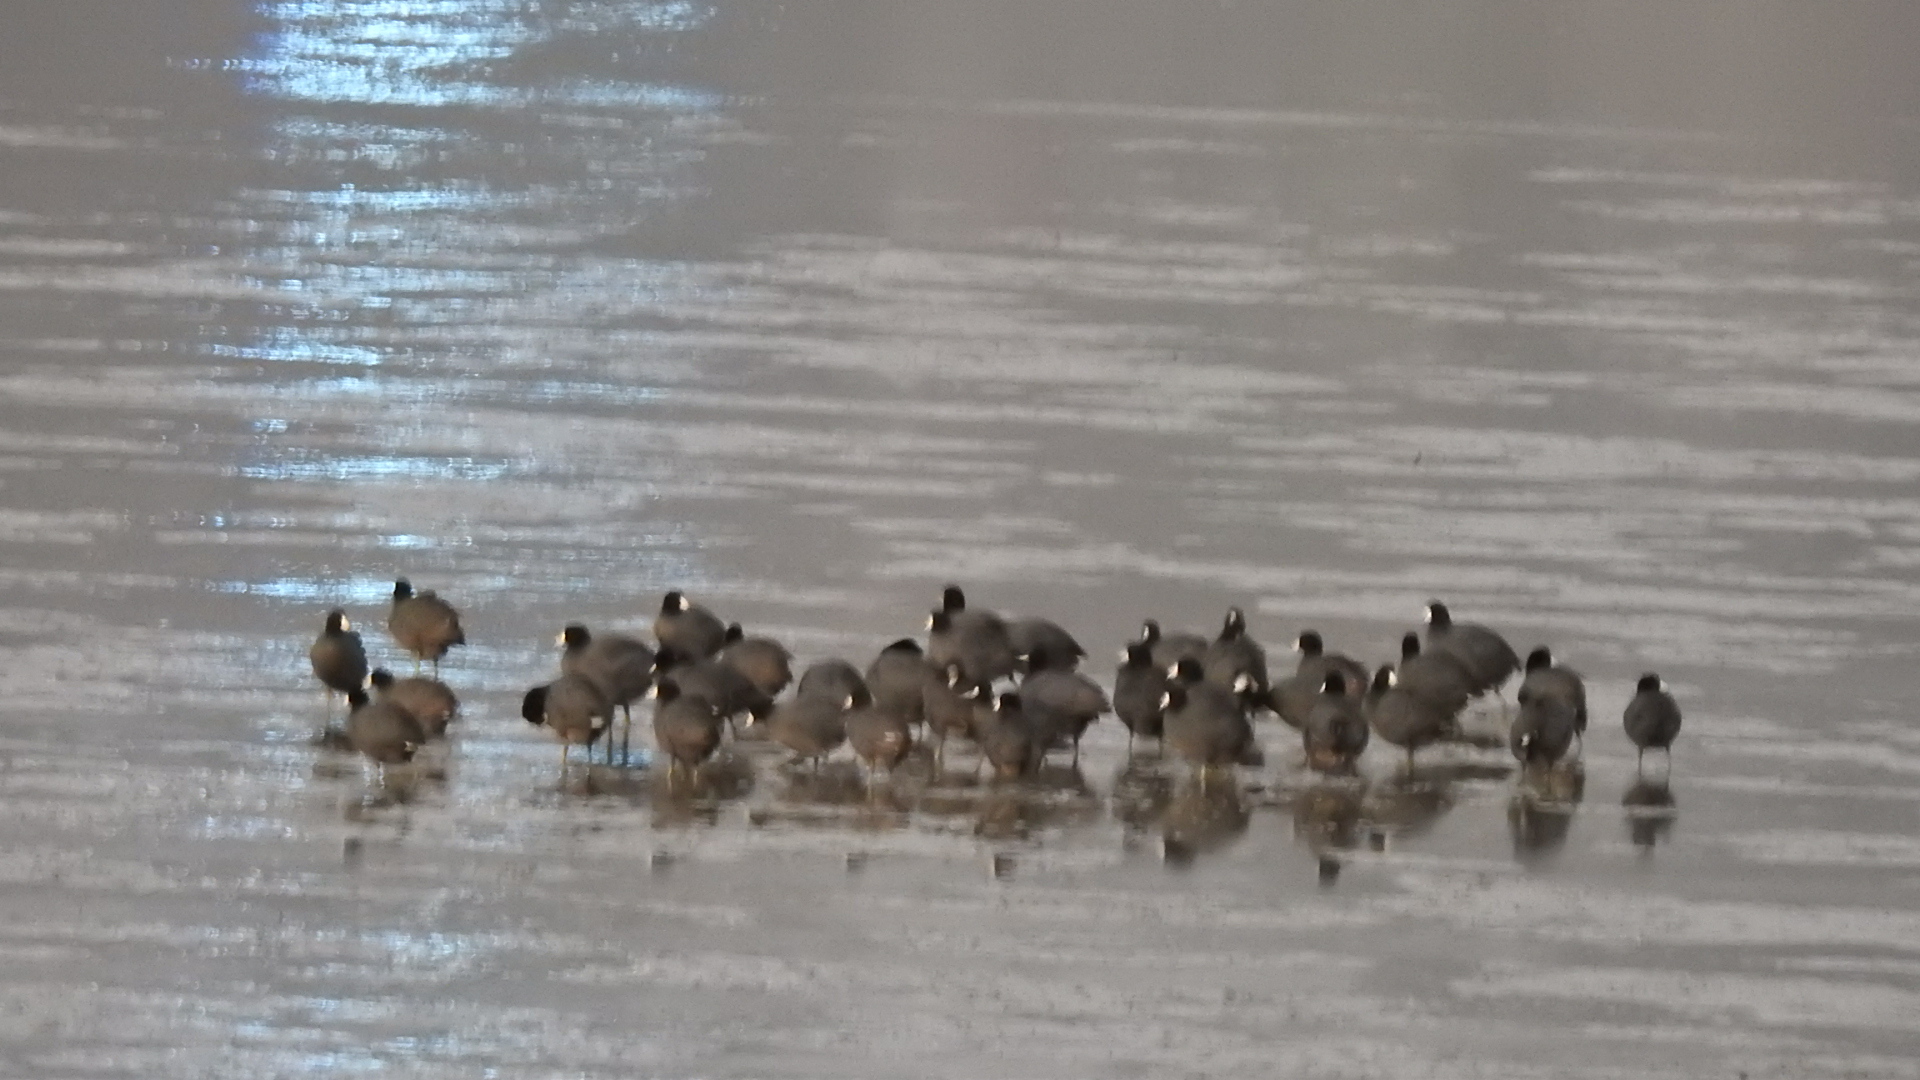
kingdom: Animalia
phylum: Chordata
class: Aves
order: Gruiformes
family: Rallidae
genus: Fulica
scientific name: Fulica americana
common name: American coot
